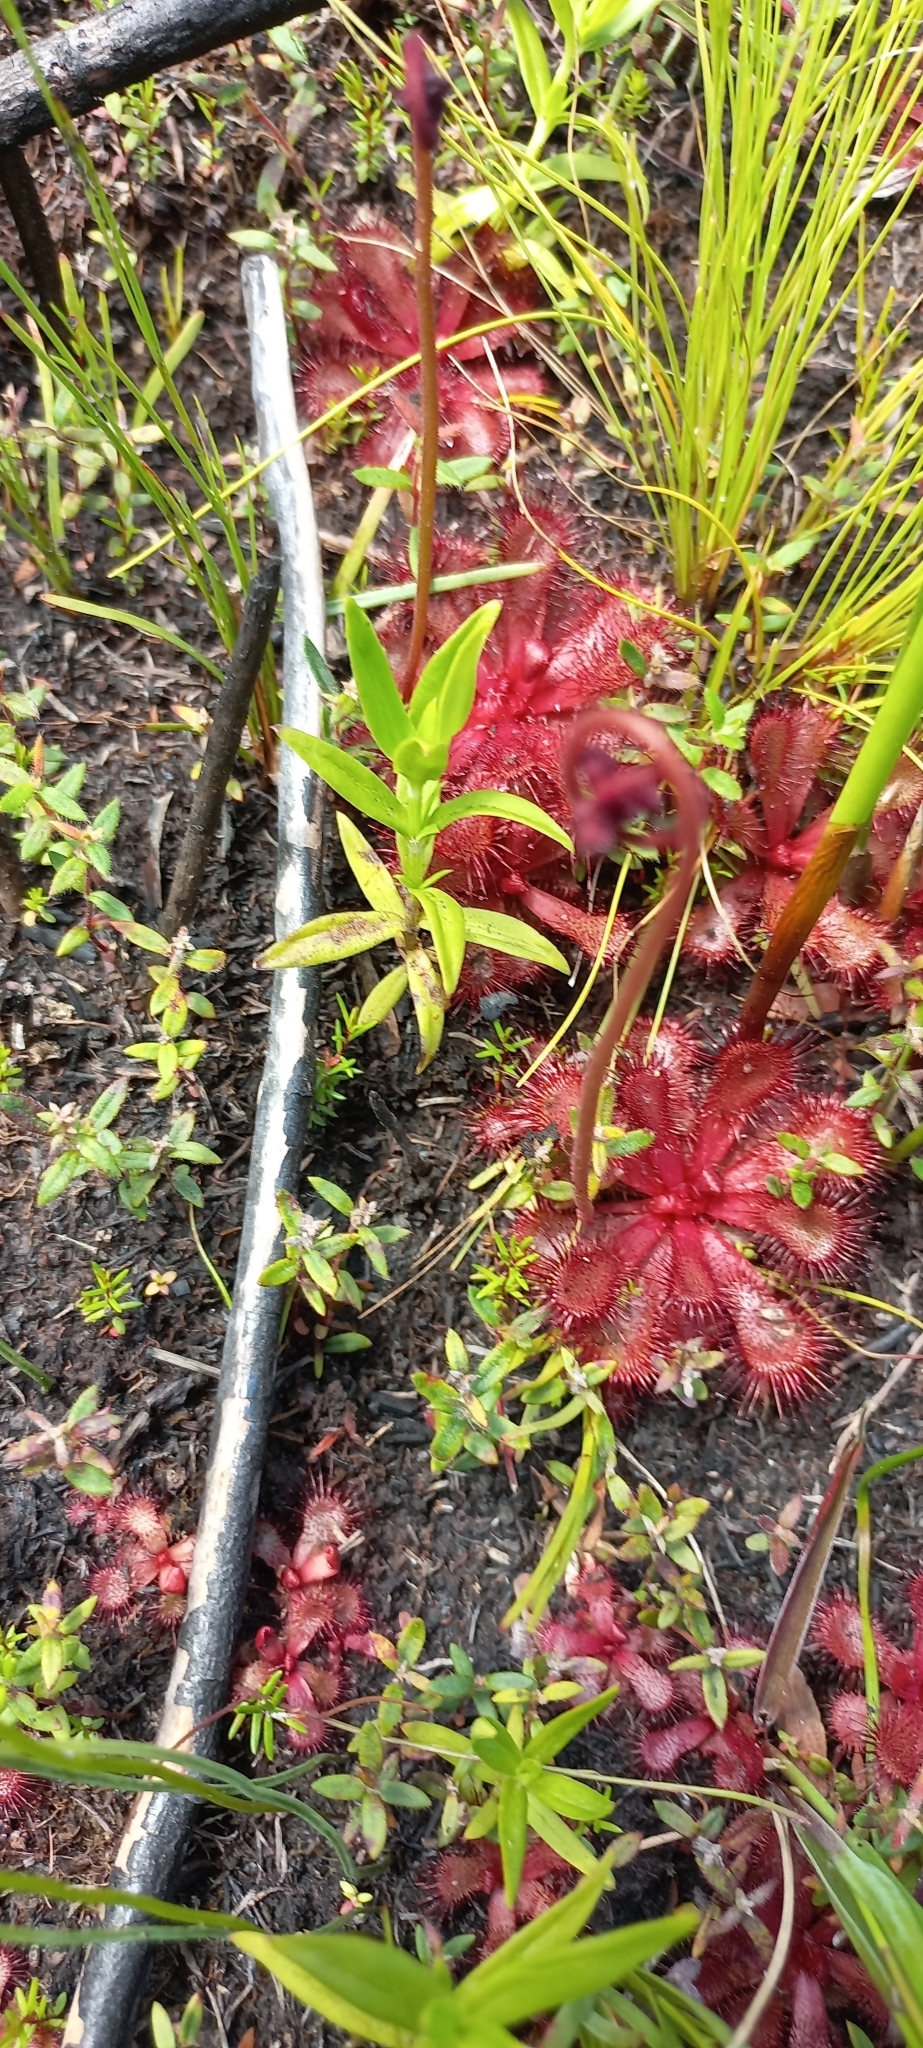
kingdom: Plantae
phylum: Tracheophyta
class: Magnoliopsida
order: Caryophyllales
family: Droseraceae
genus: Drosera
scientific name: Drosera slackii
